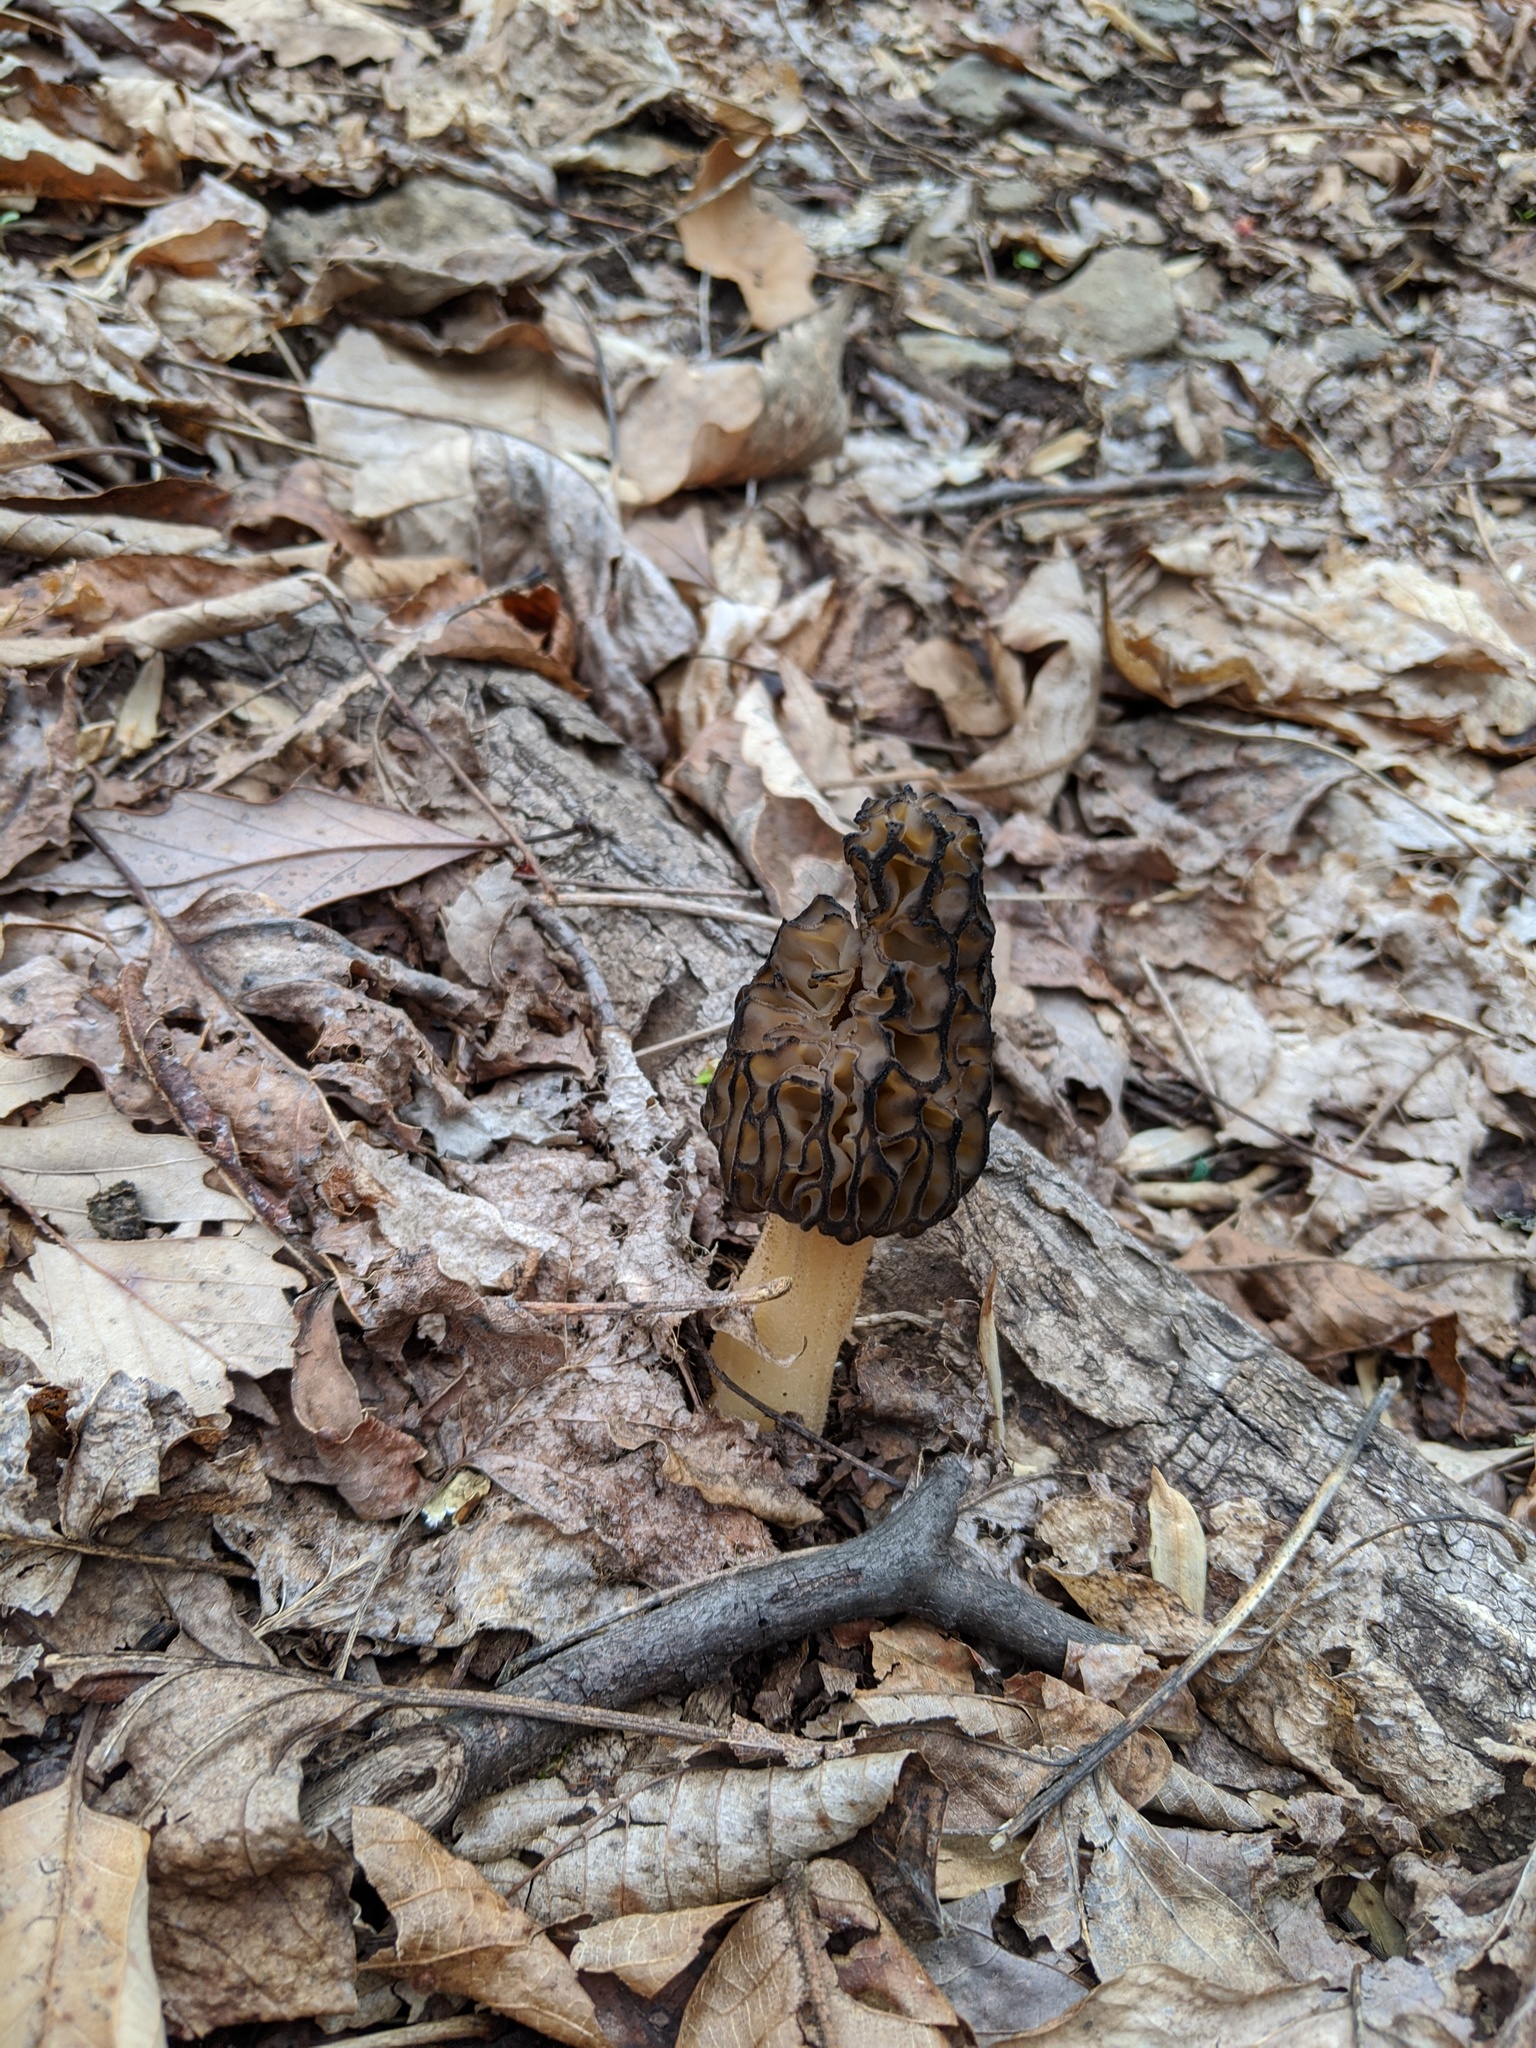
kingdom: Fungi
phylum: Ascomycota
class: Pezizomycetes
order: Pezizales
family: Morchellaceae
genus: Morchella
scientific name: Morchella angusticeps
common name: Black morel
